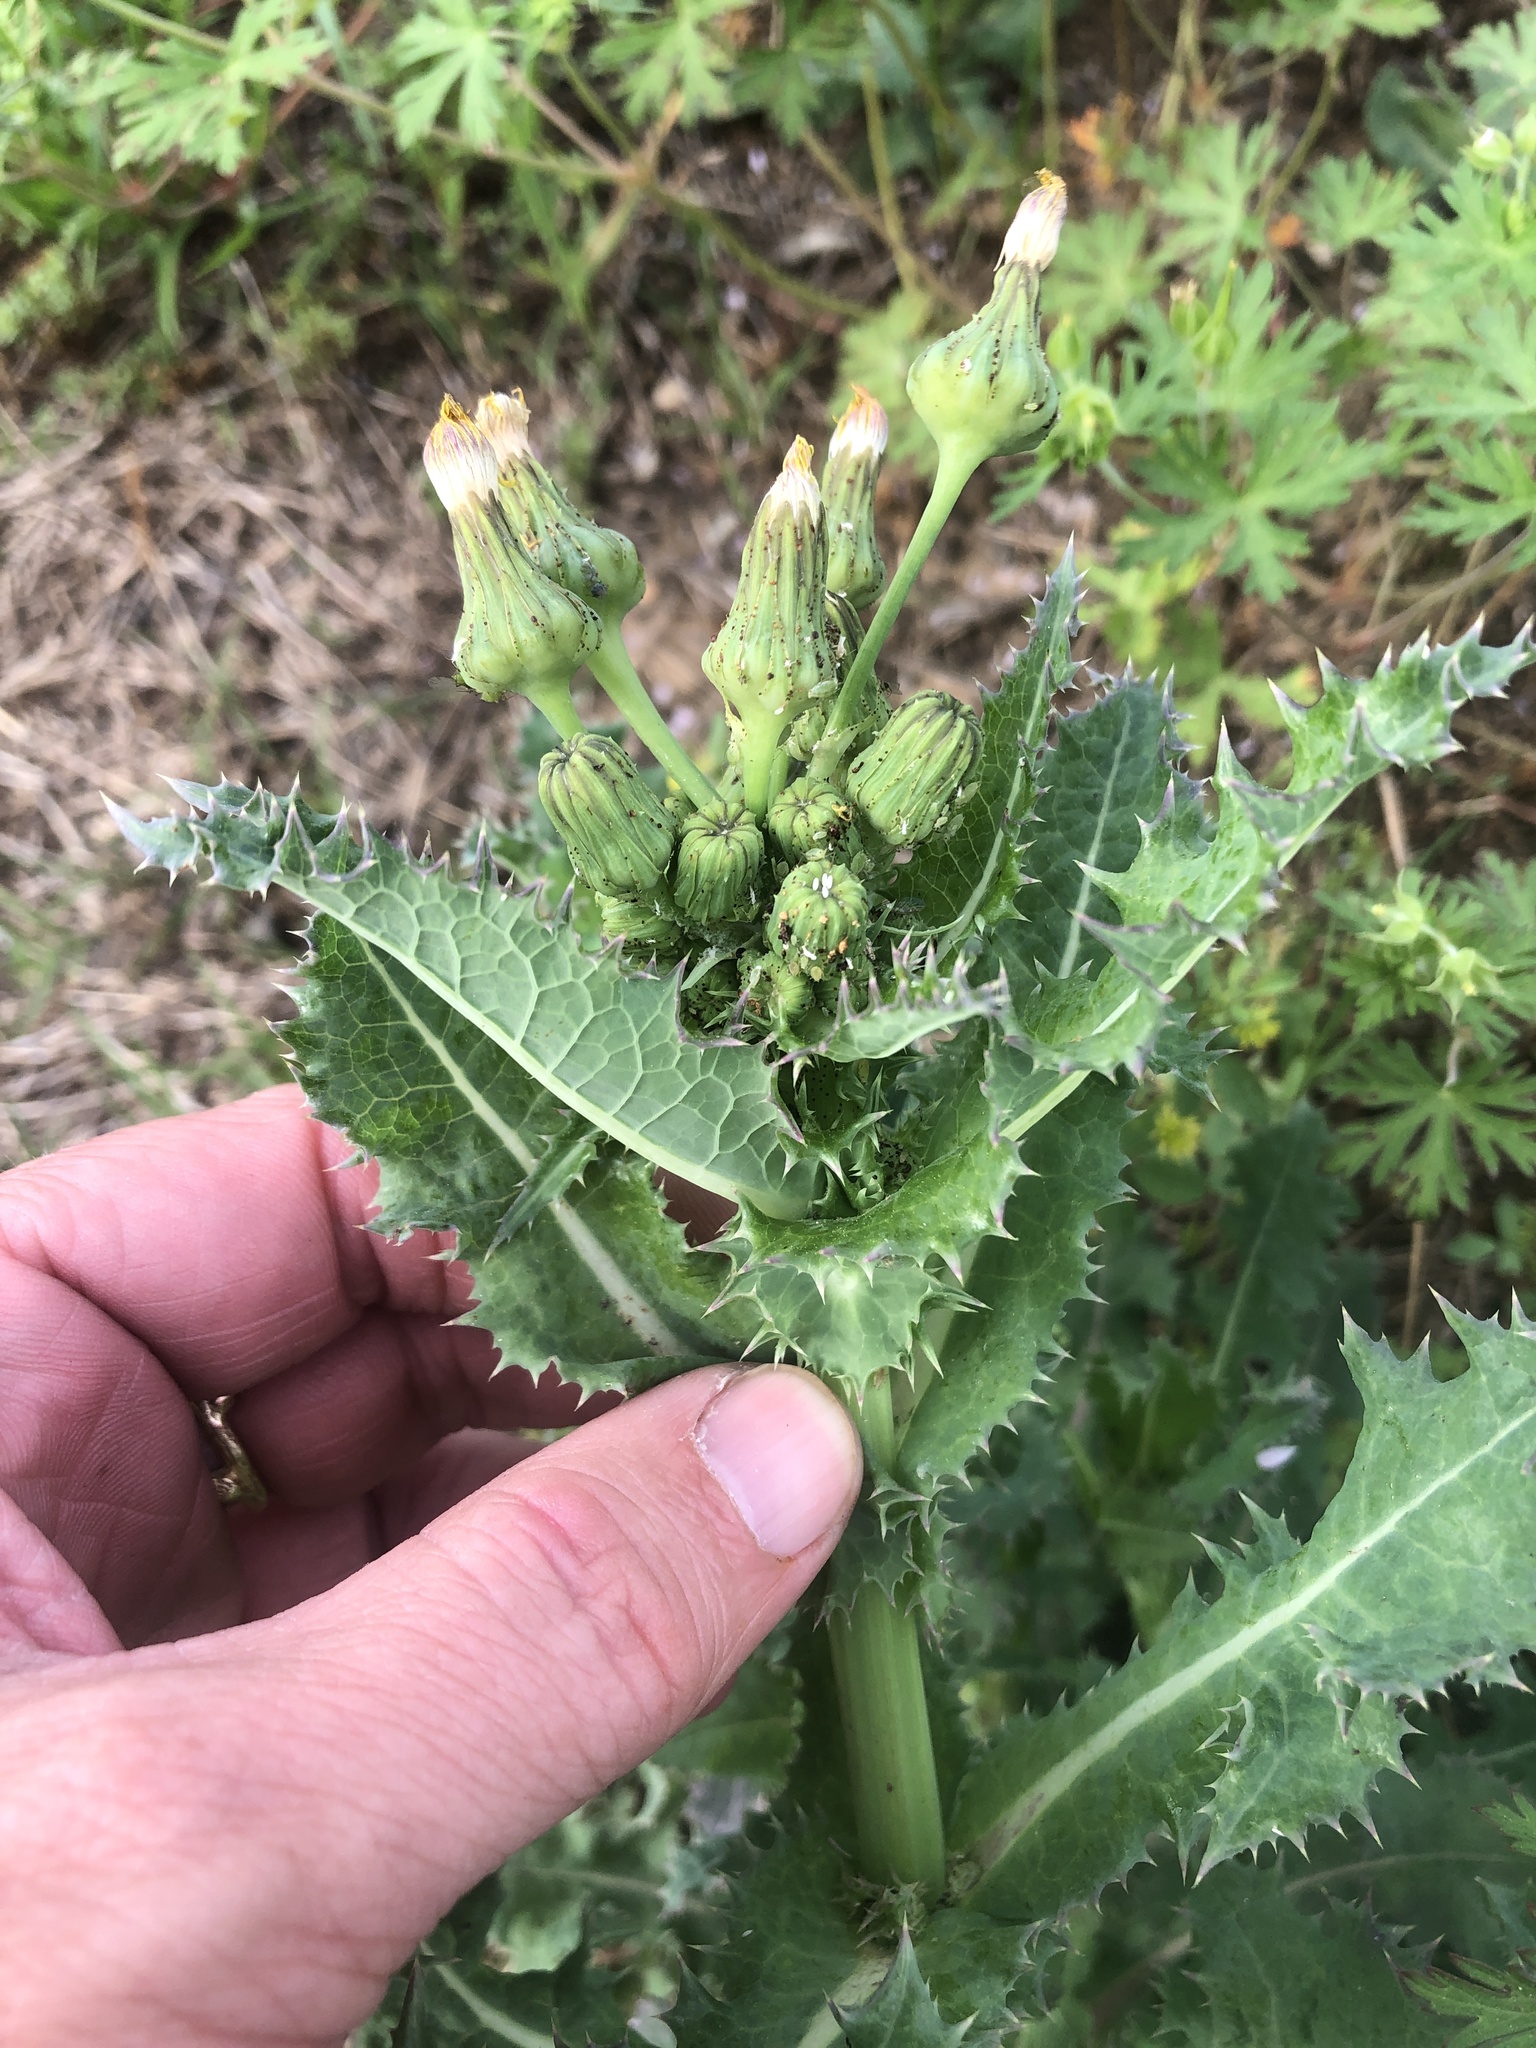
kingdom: Plantae
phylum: Tracheophyta
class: Magnoliopsida
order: Asterales
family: Asteraceae
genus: Sonchus
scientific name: Sonchus asper
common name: Prickly sow-thistle
